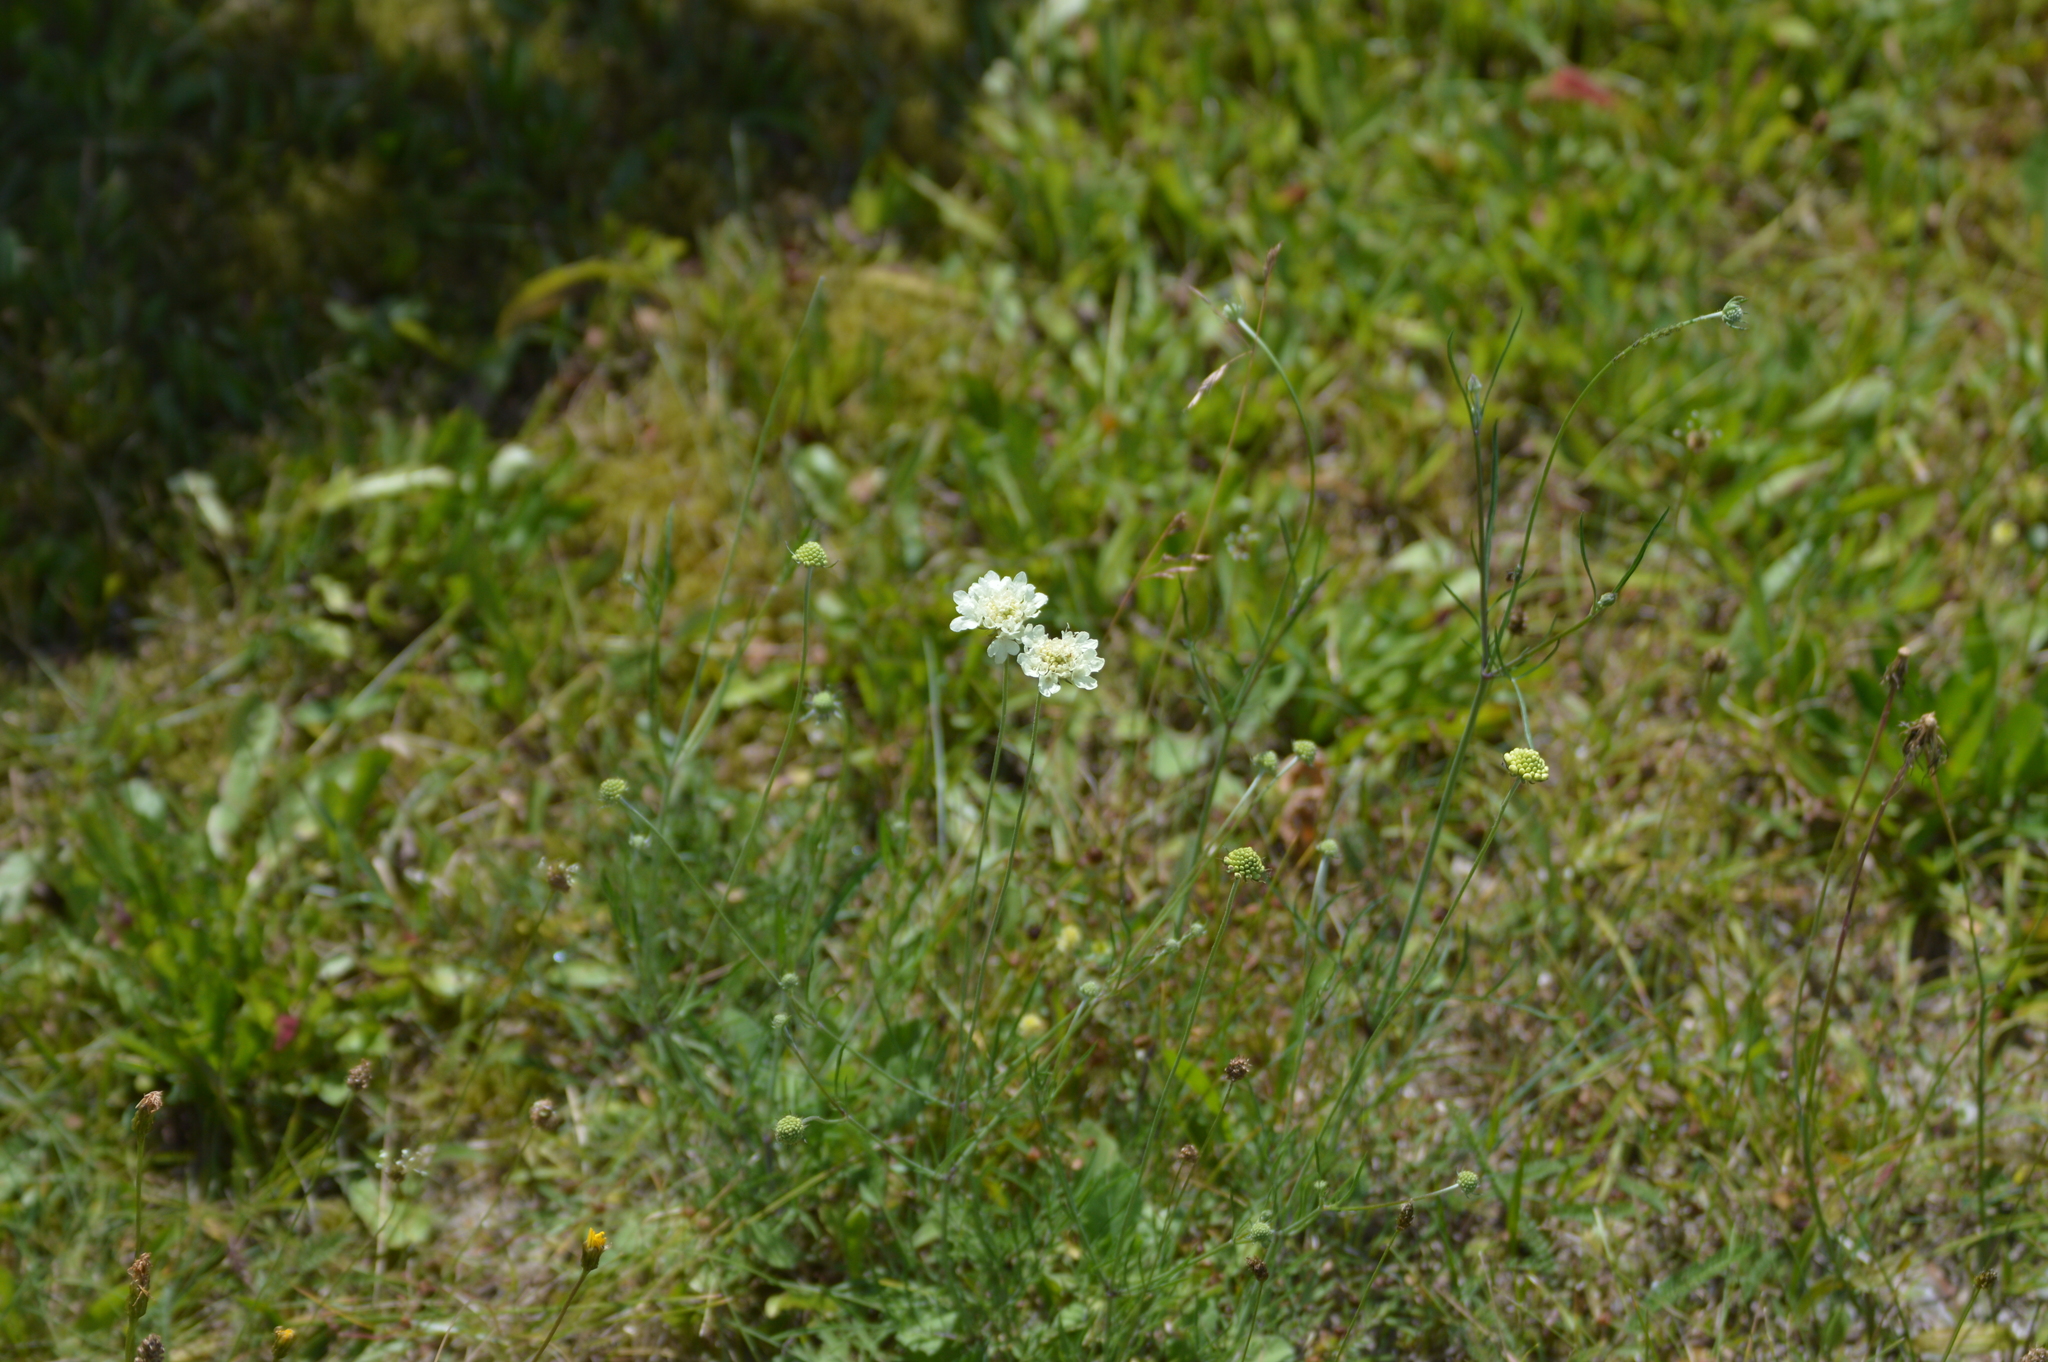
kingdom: Plantae
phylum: Tracheophyta
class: Magnoliopsida
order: Dipsacales
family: Caprifoliaceae
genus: Scabiosa
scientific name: Scabiosa ochroleuca
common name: Cream pincushions
